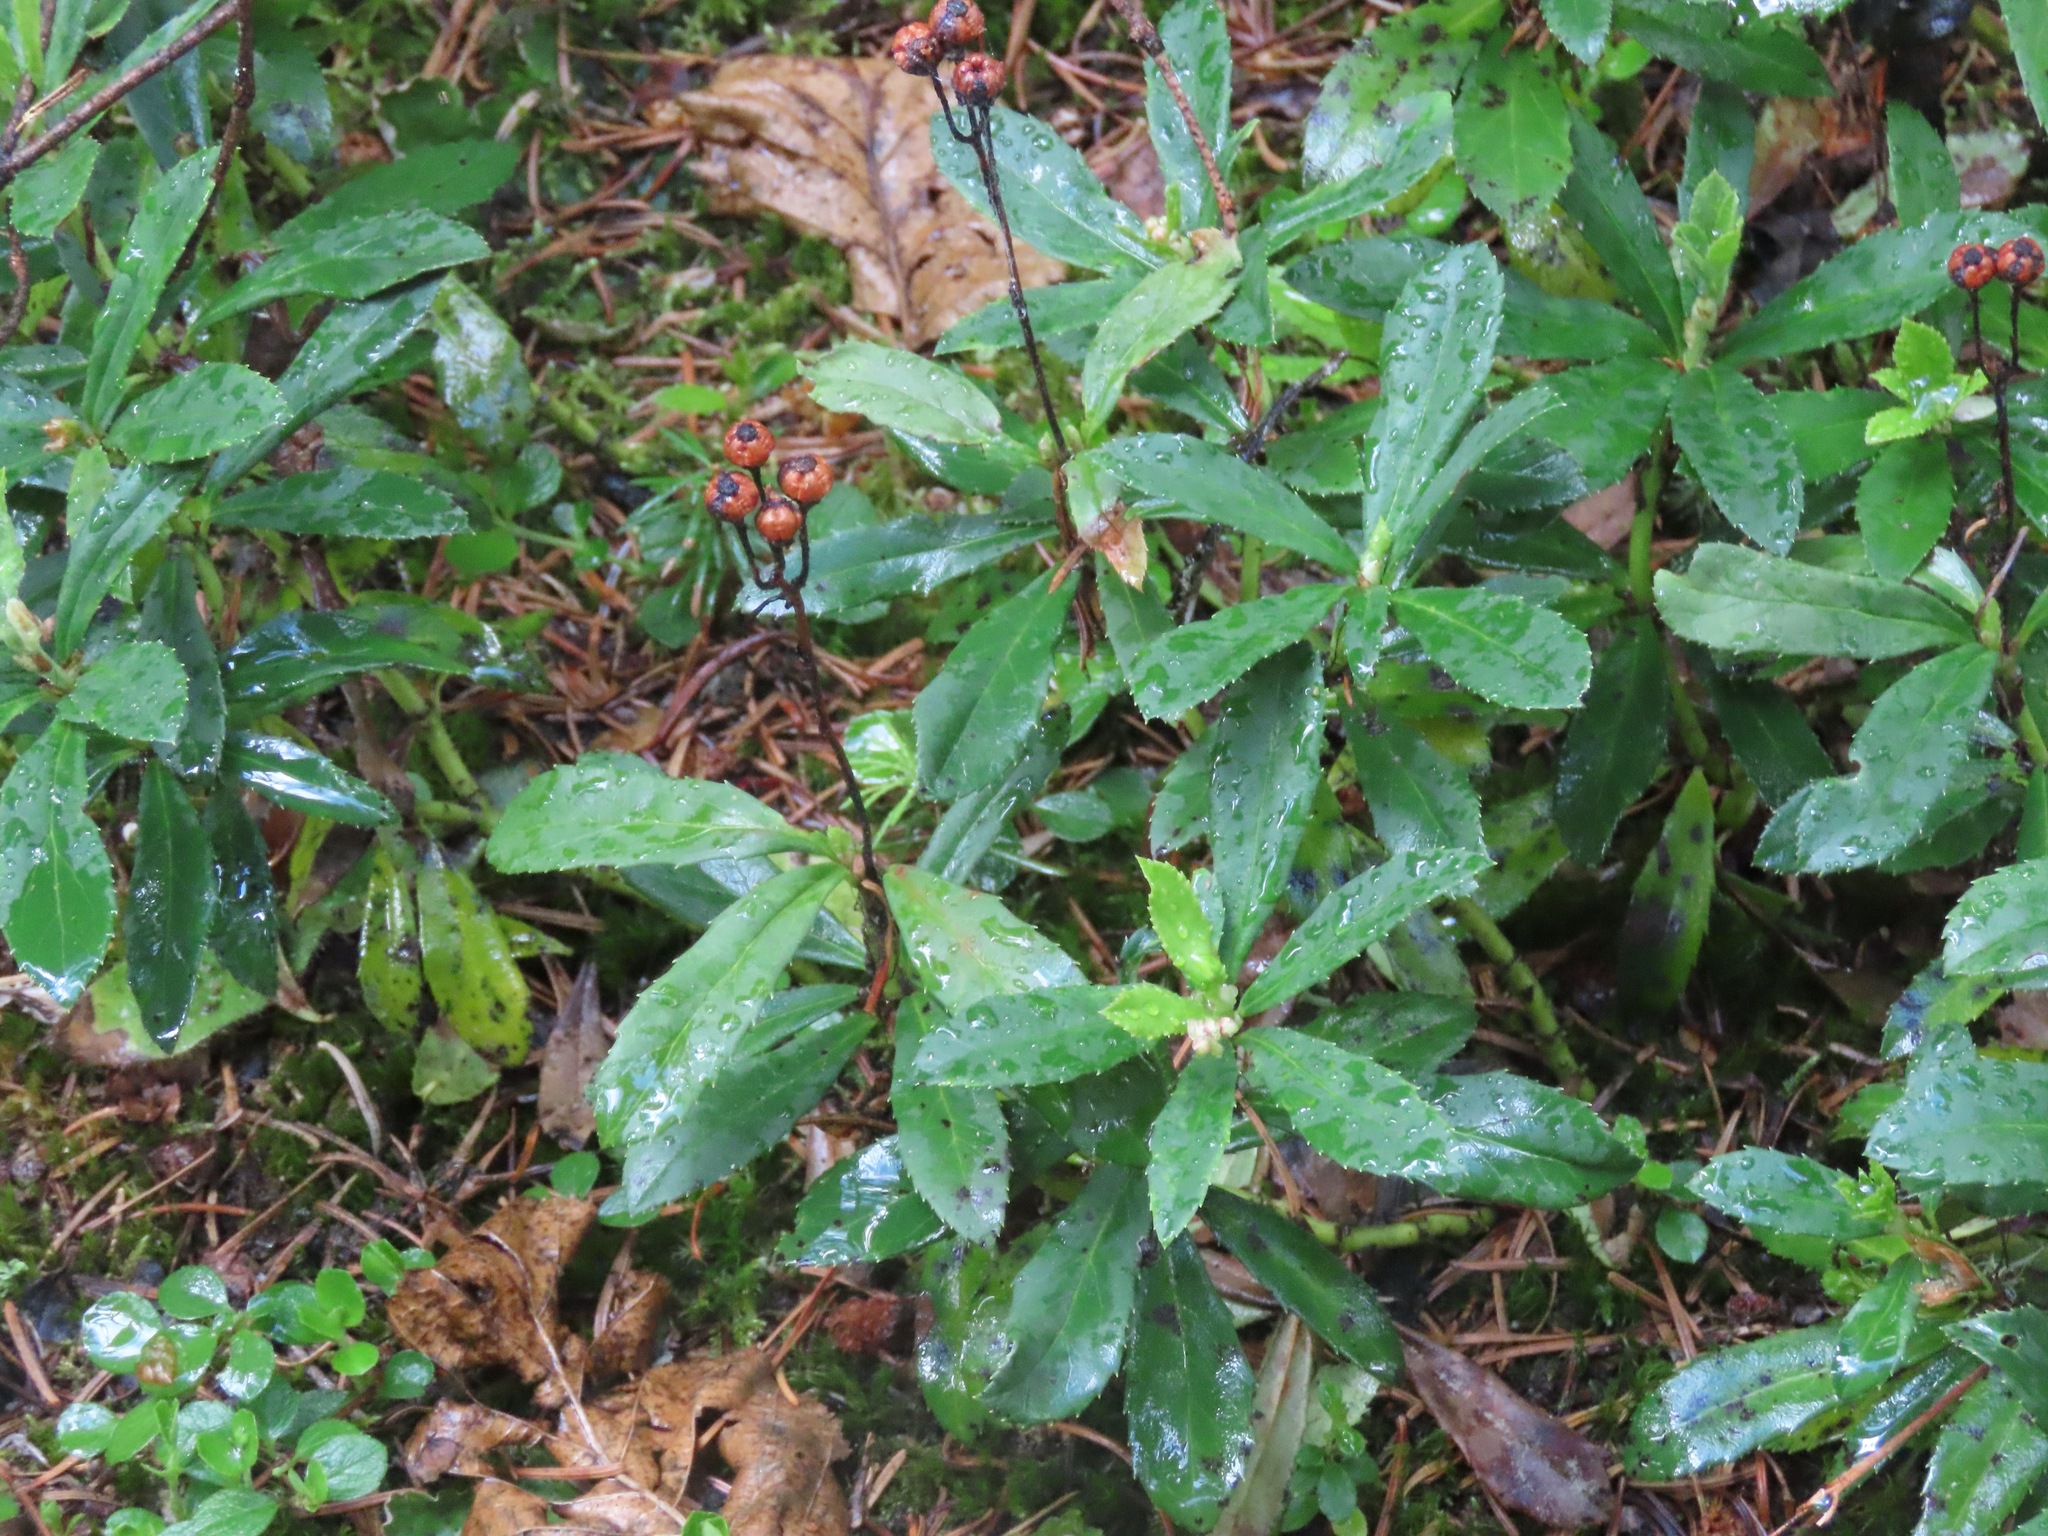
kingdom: Plantae
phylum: Tracheophyta
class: Magnoliopsida
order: Ericales
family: Ericaceae
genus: Chimaphila
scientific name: Chimaphila umbellata
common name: Pipsissewa
